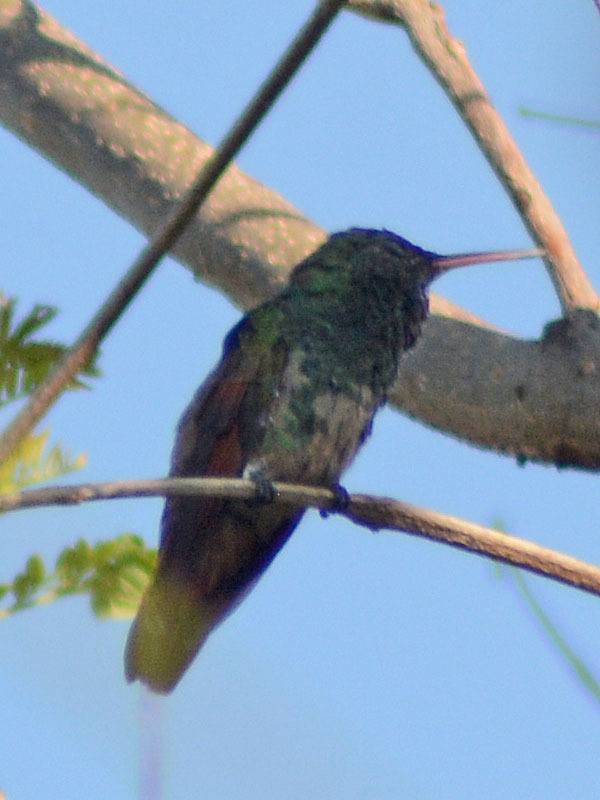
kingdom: Animalia
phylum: Chordata
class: Aves
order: Apodiformes
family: Trochilidae
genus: Saucerottia
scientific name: Saucerottia beryllina
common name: Berylline hummingbird
